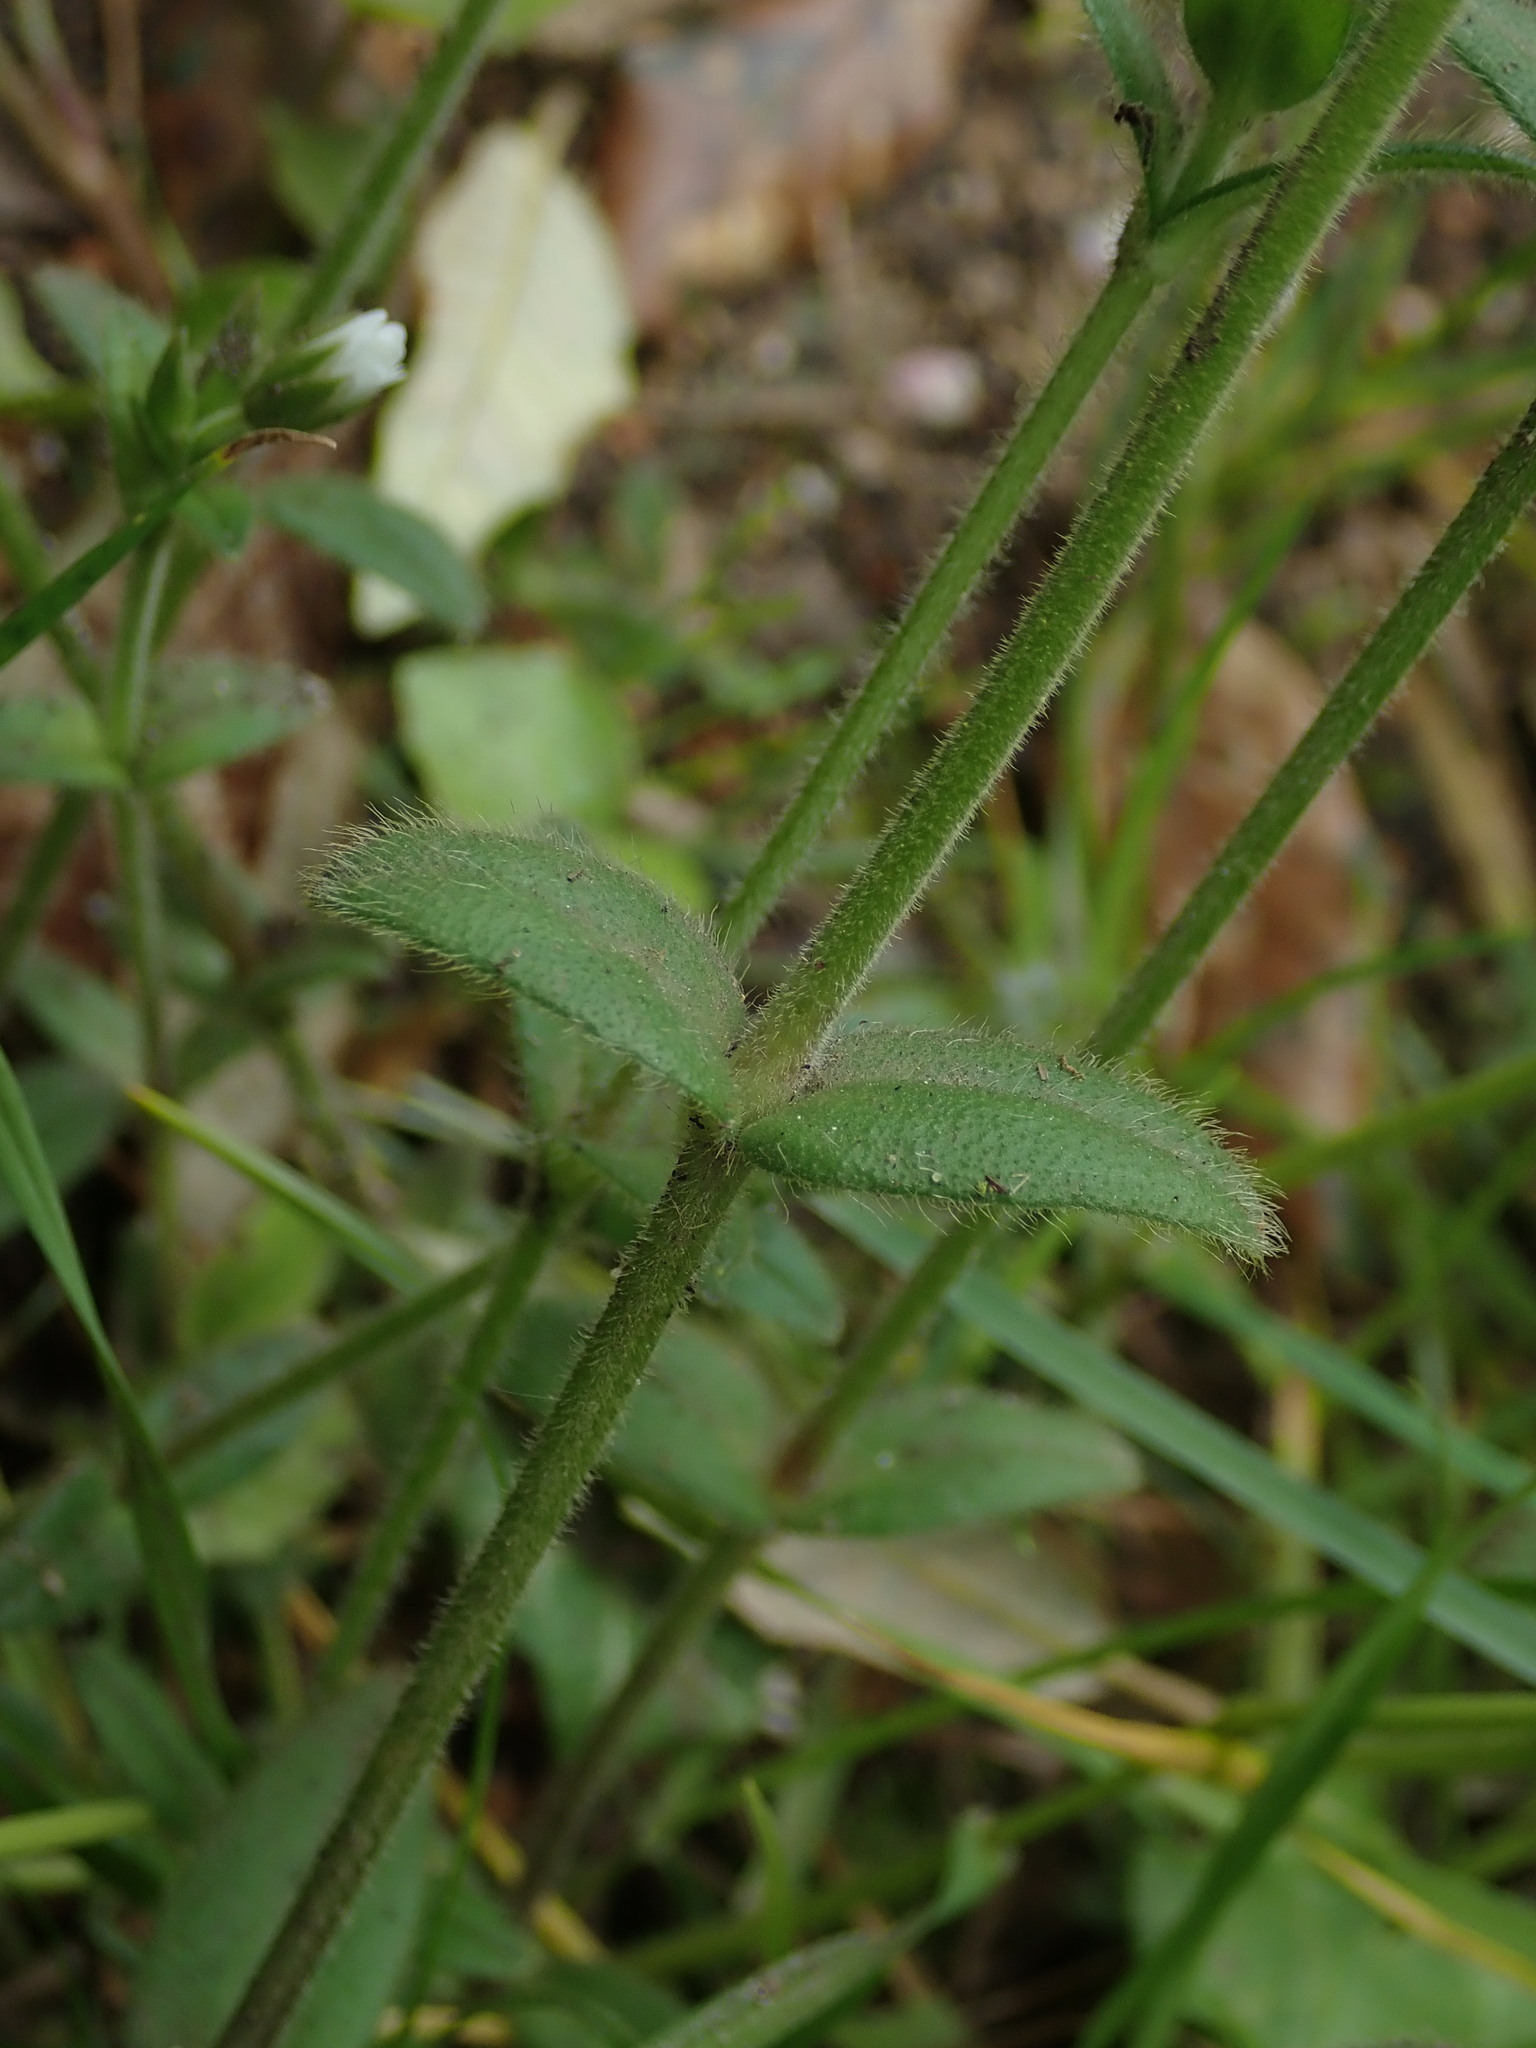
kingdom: Plantae
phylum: Tracheophyta
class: Magnoliopsida
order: Caryophyllales
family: Caryophyllaceae
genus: Cerastium
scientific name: Cerastium fontanum
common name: Common mouse-ear
